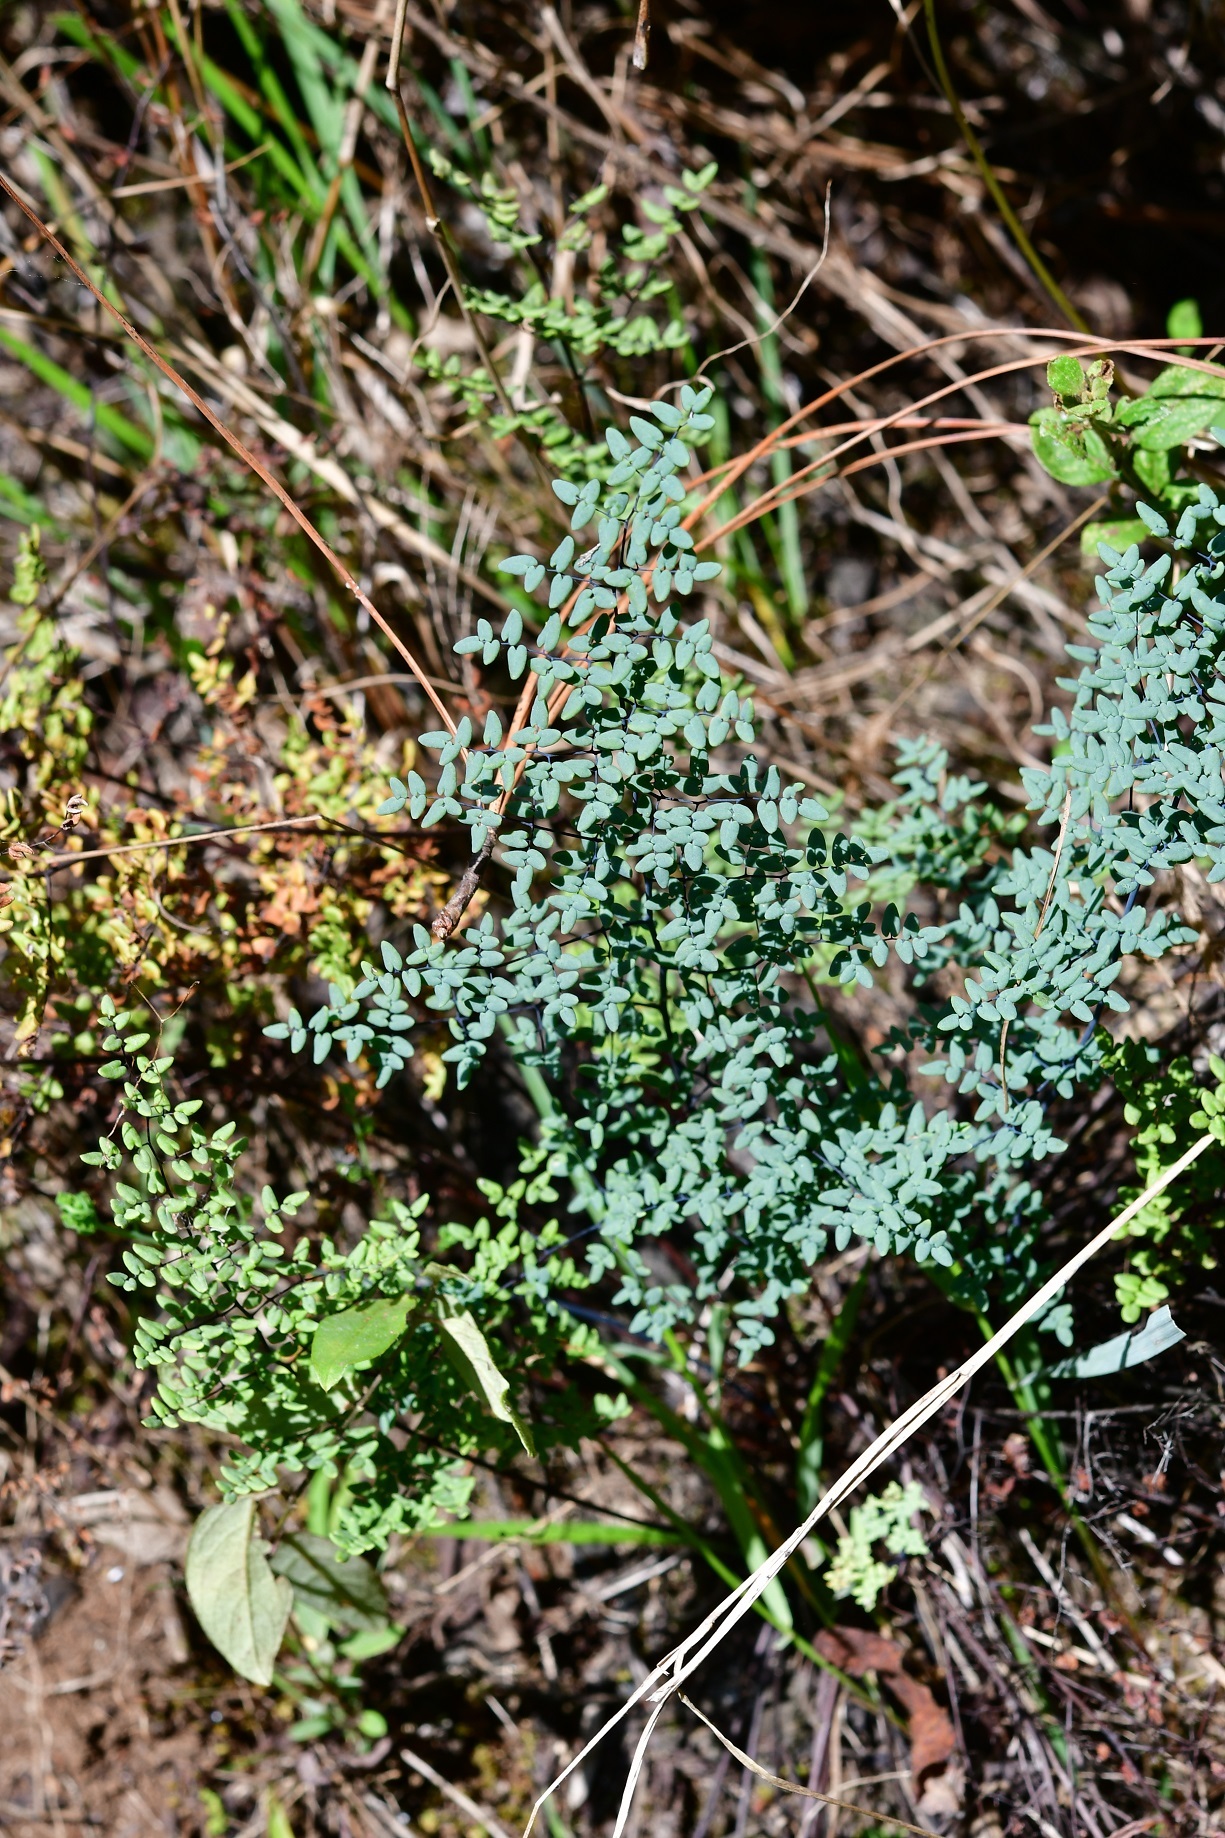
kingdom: Plantae
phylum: Tracheophyta
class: Polypodiopsida
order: Polypodiales
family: Pteridaceae
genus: Argyrochosma
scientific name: Argyrochosma formosa
